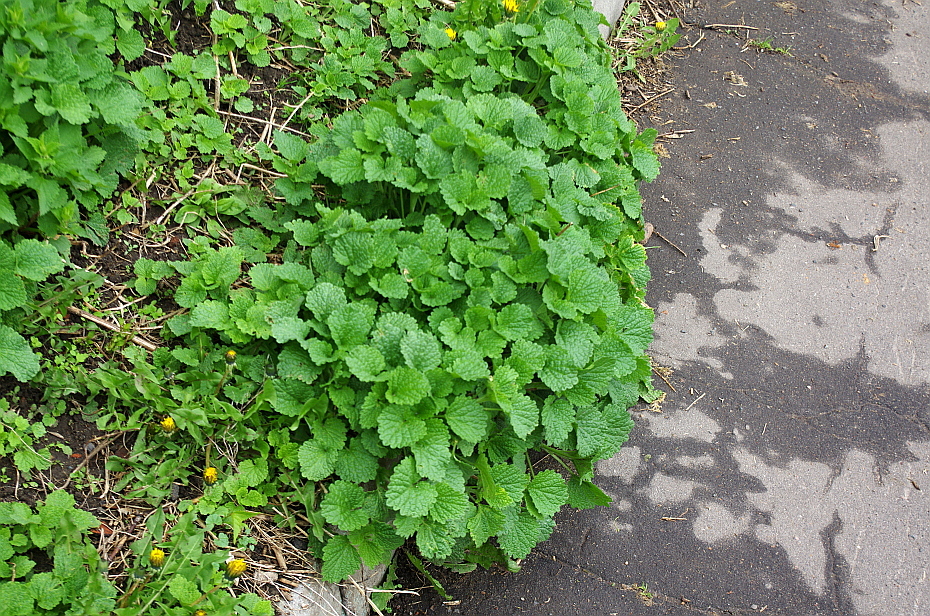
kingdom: Plantae
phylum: Tracheophyta
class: Magnoliopsida
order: Lamiales
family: Lamiaceae
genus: Ballota
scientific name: Ballota nigra
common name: Black horehound
